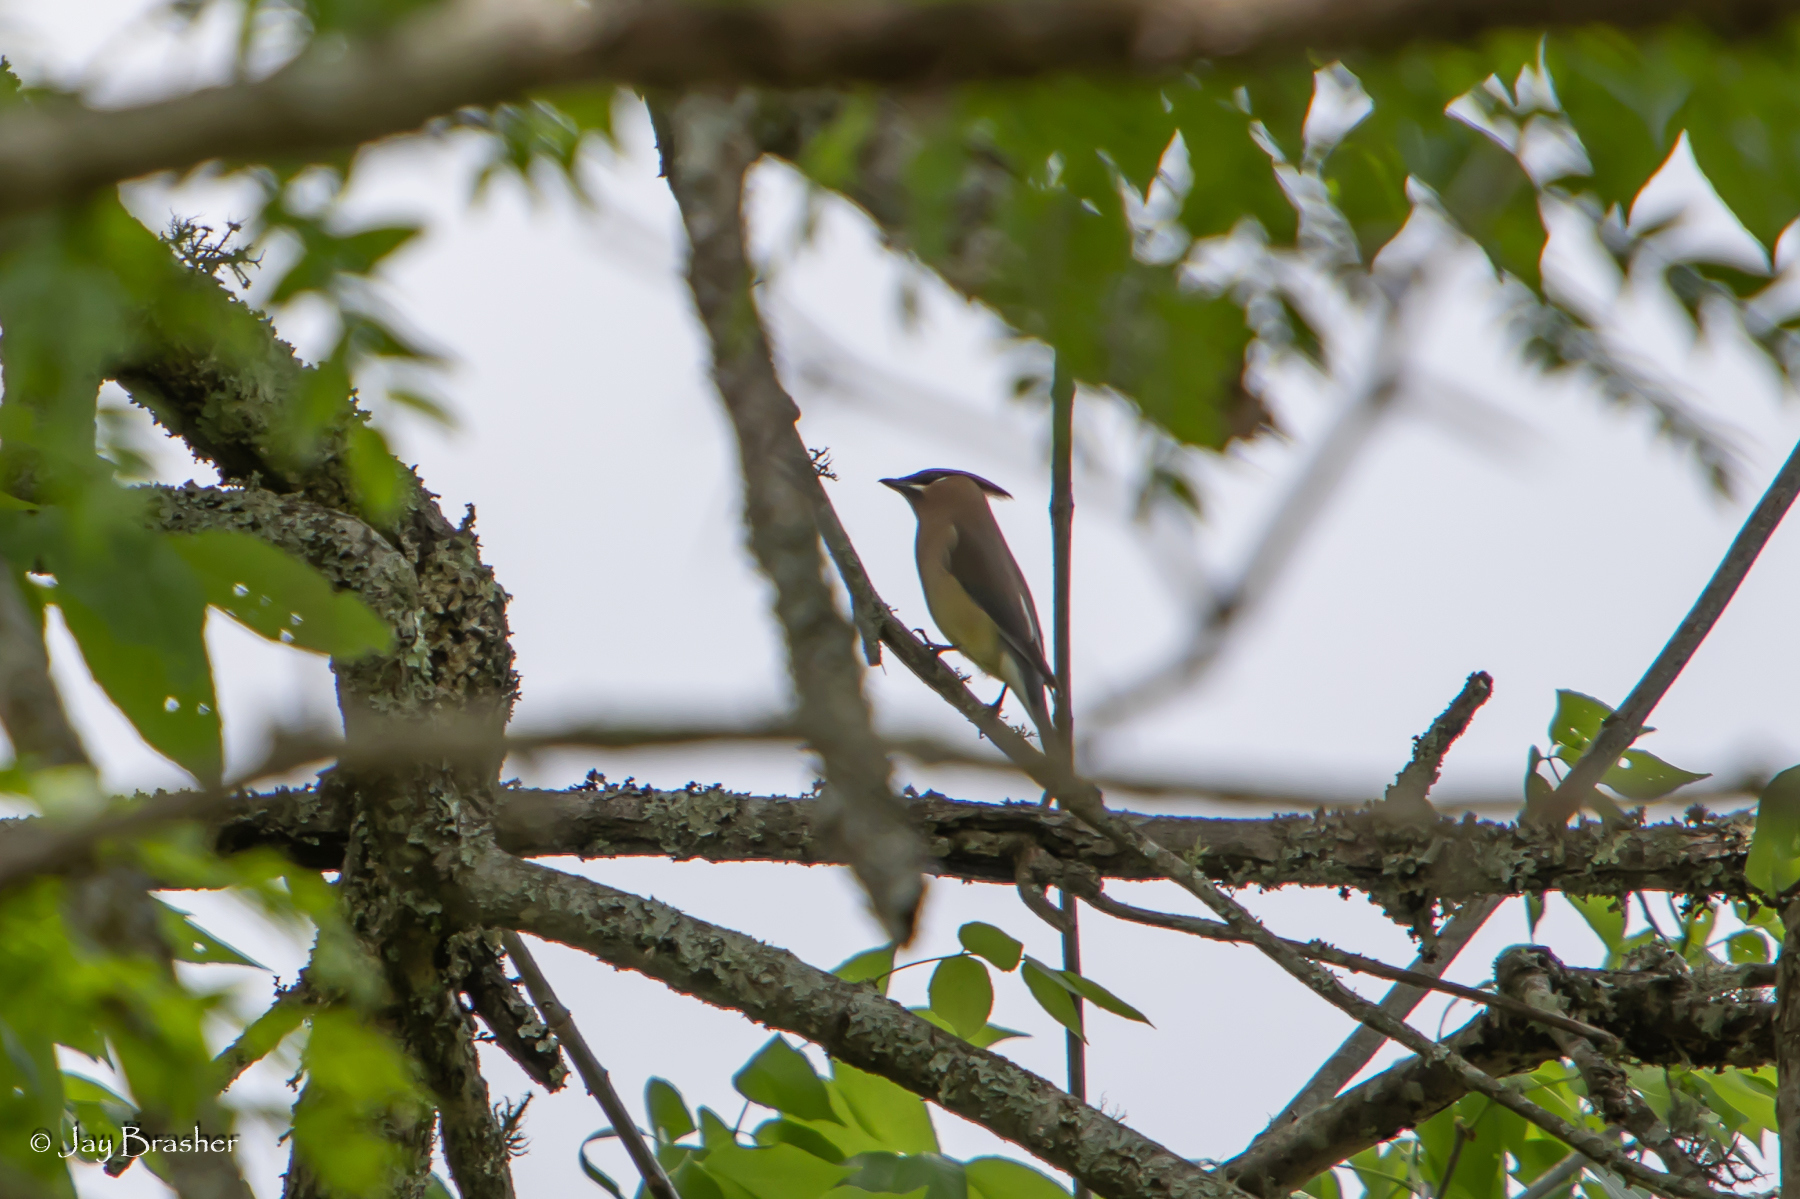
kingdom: Animalia
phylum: Chordata
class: Aves
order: Passeriformes
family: Bombycillidae
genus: Bombycilla
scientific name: Bombycilla cedrorum
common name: Cedar waxwing
